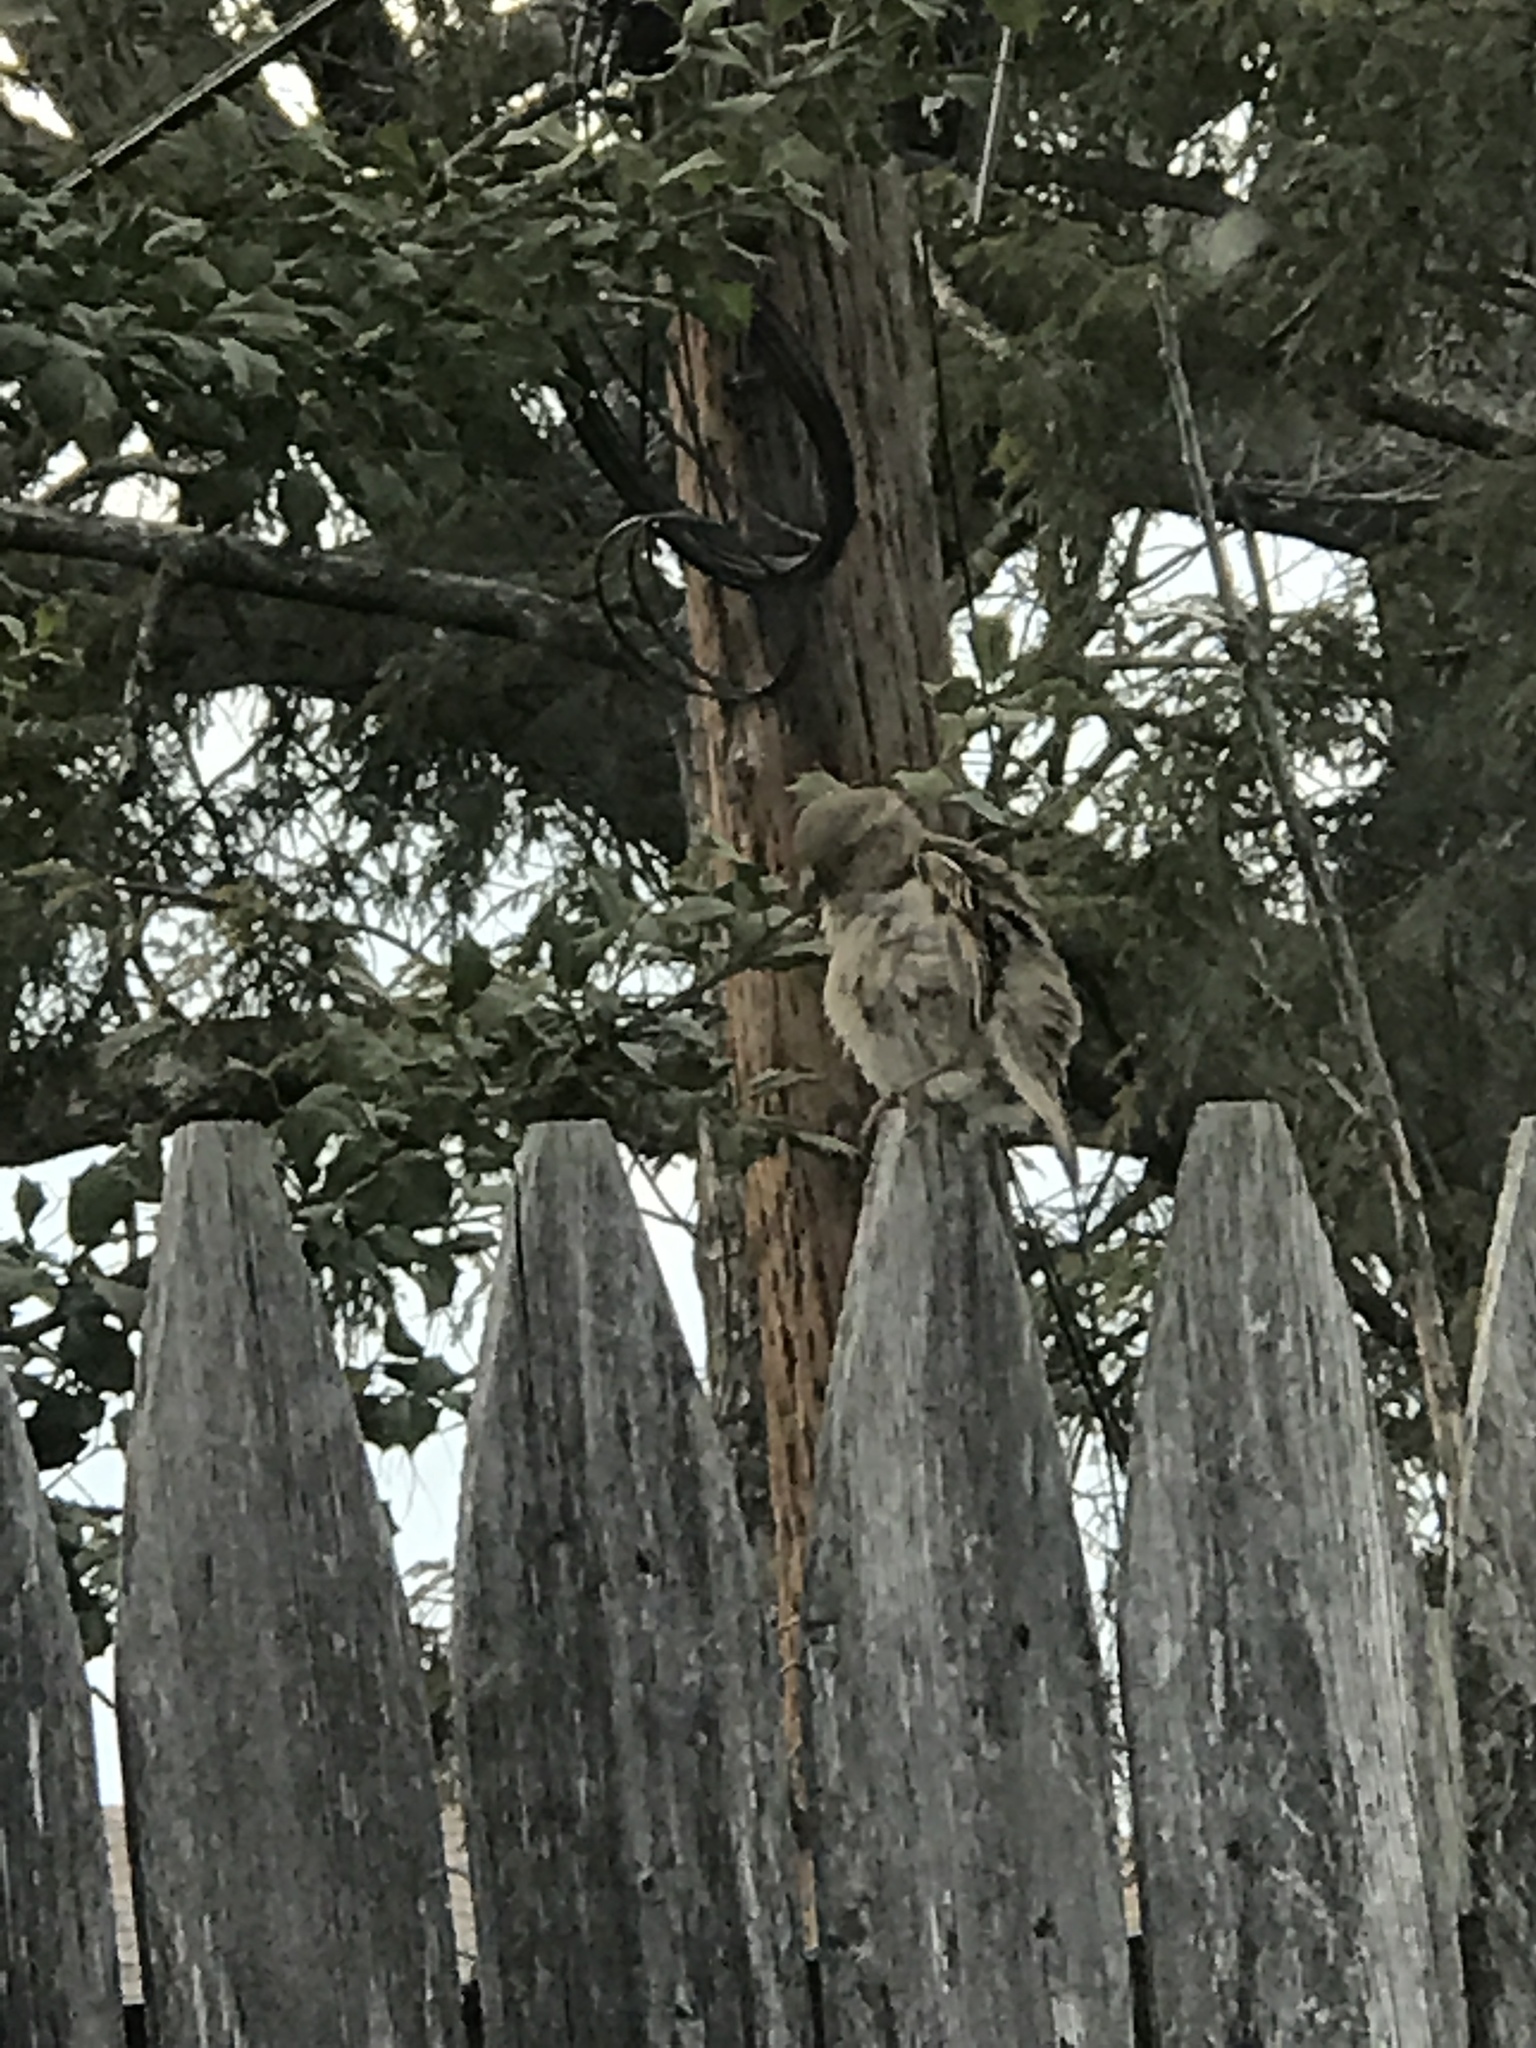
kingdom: Animalia
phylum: Chordata
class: Aves
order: Passeriformes
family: Passeridae
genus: Passer
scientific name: Passer domesticus
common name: House sparrow
